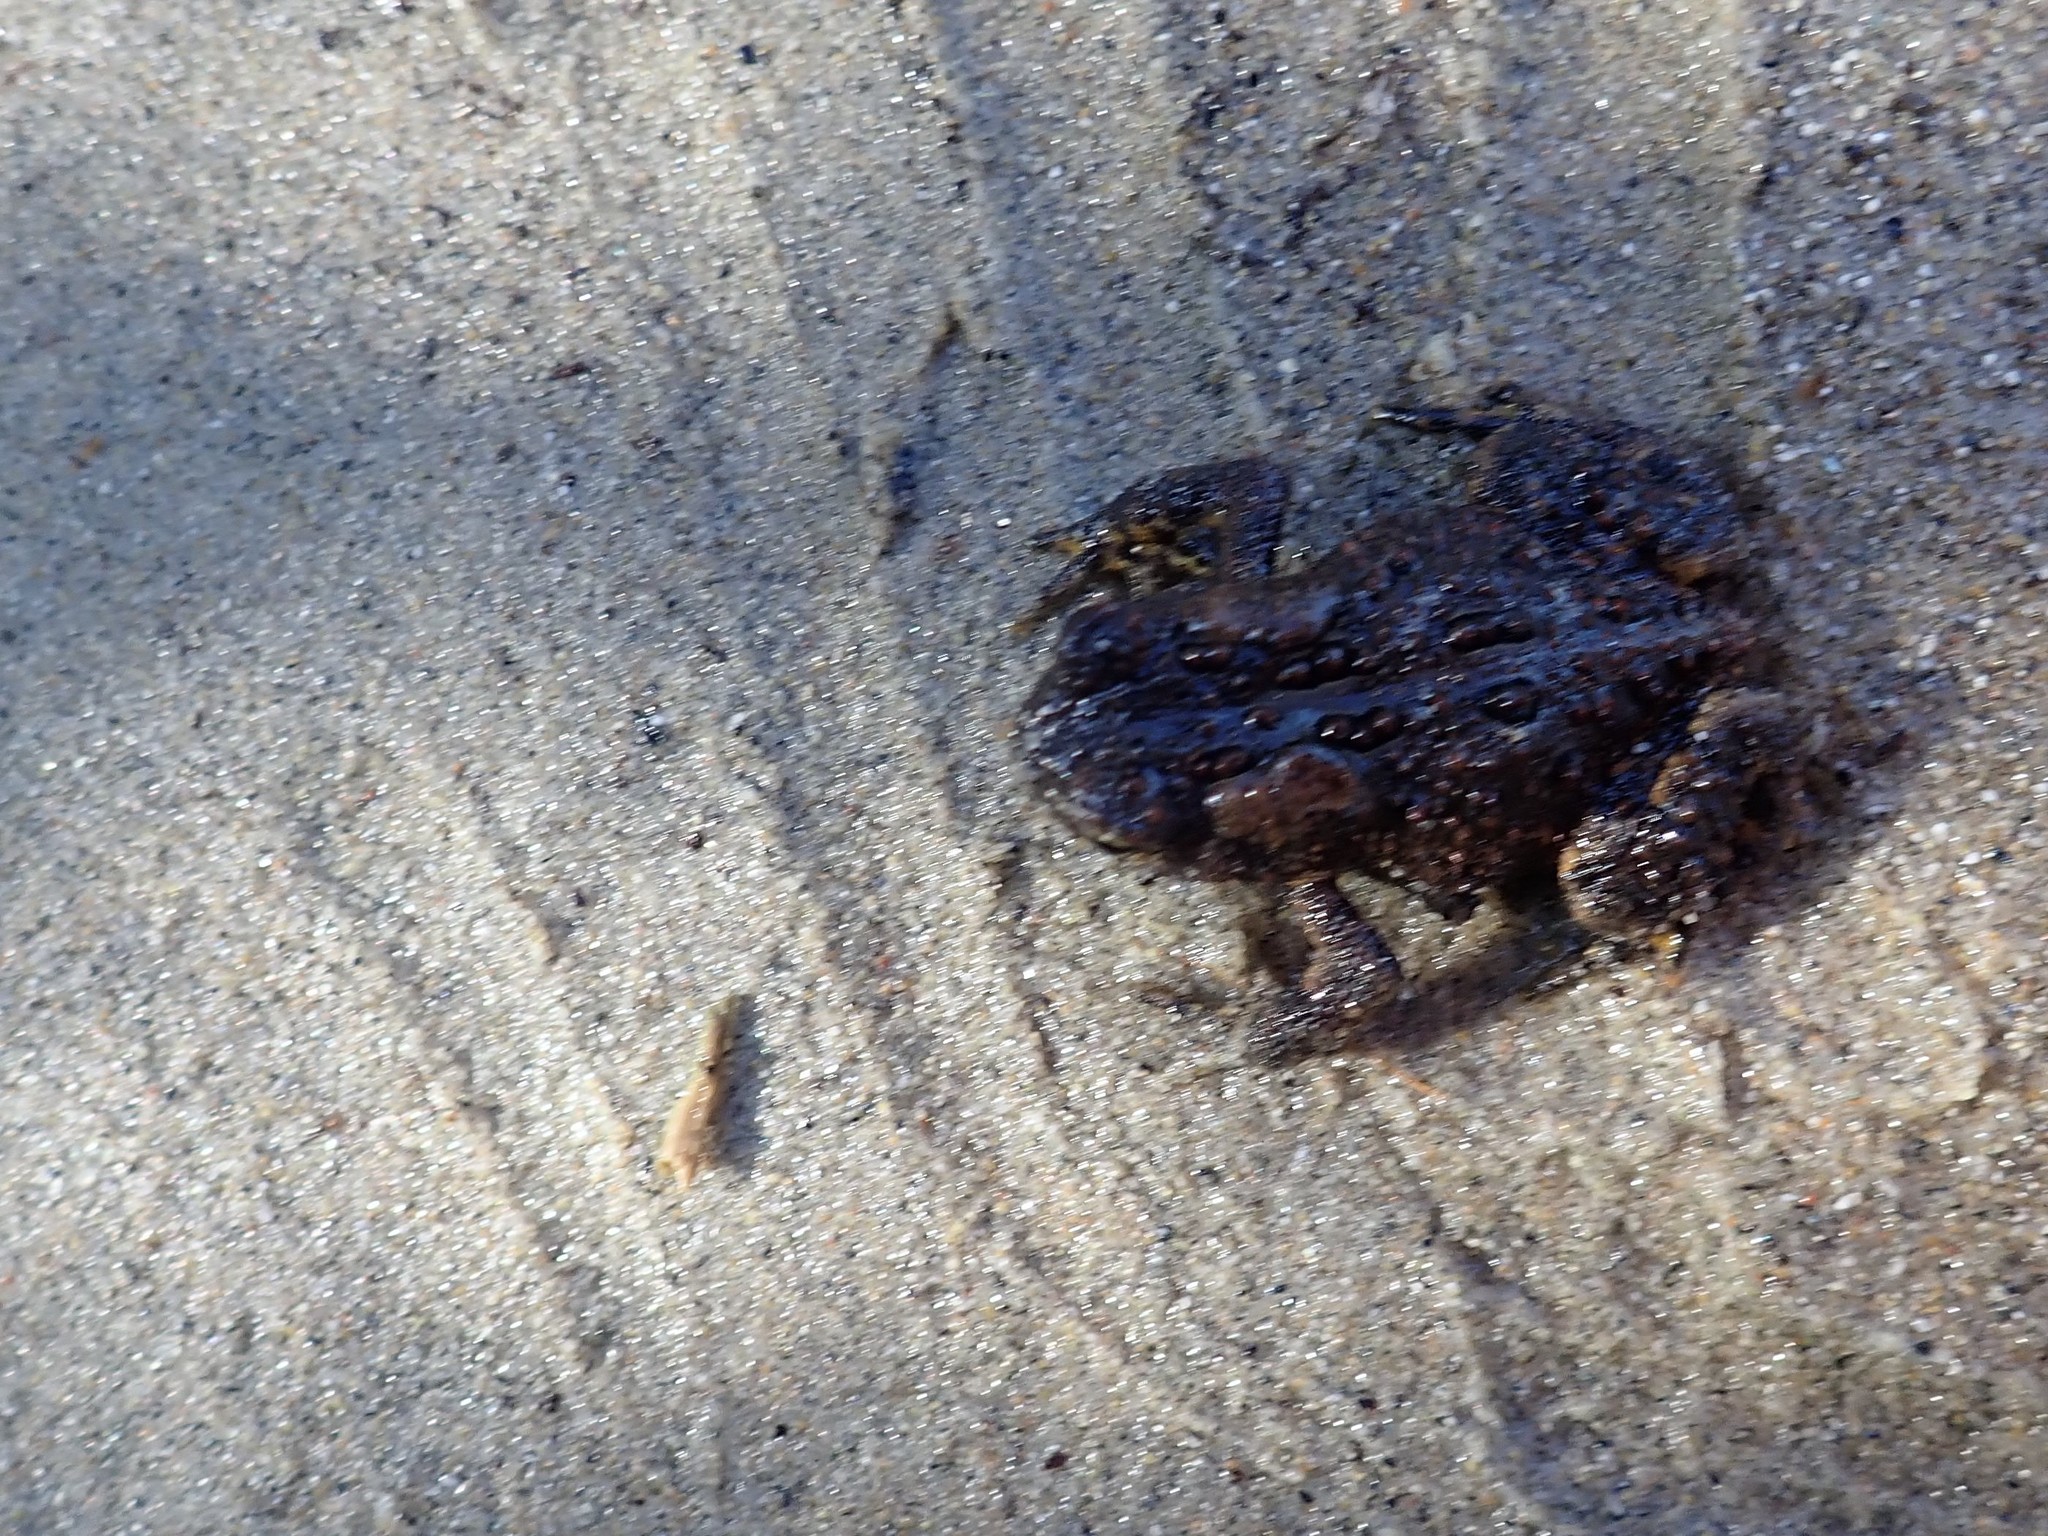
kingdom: Animalia
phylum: Chordata
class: Amphibia
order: Anura
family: Bufonidae
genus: Anaxyrus
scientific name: Anaxyrus americanus
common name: American toad
